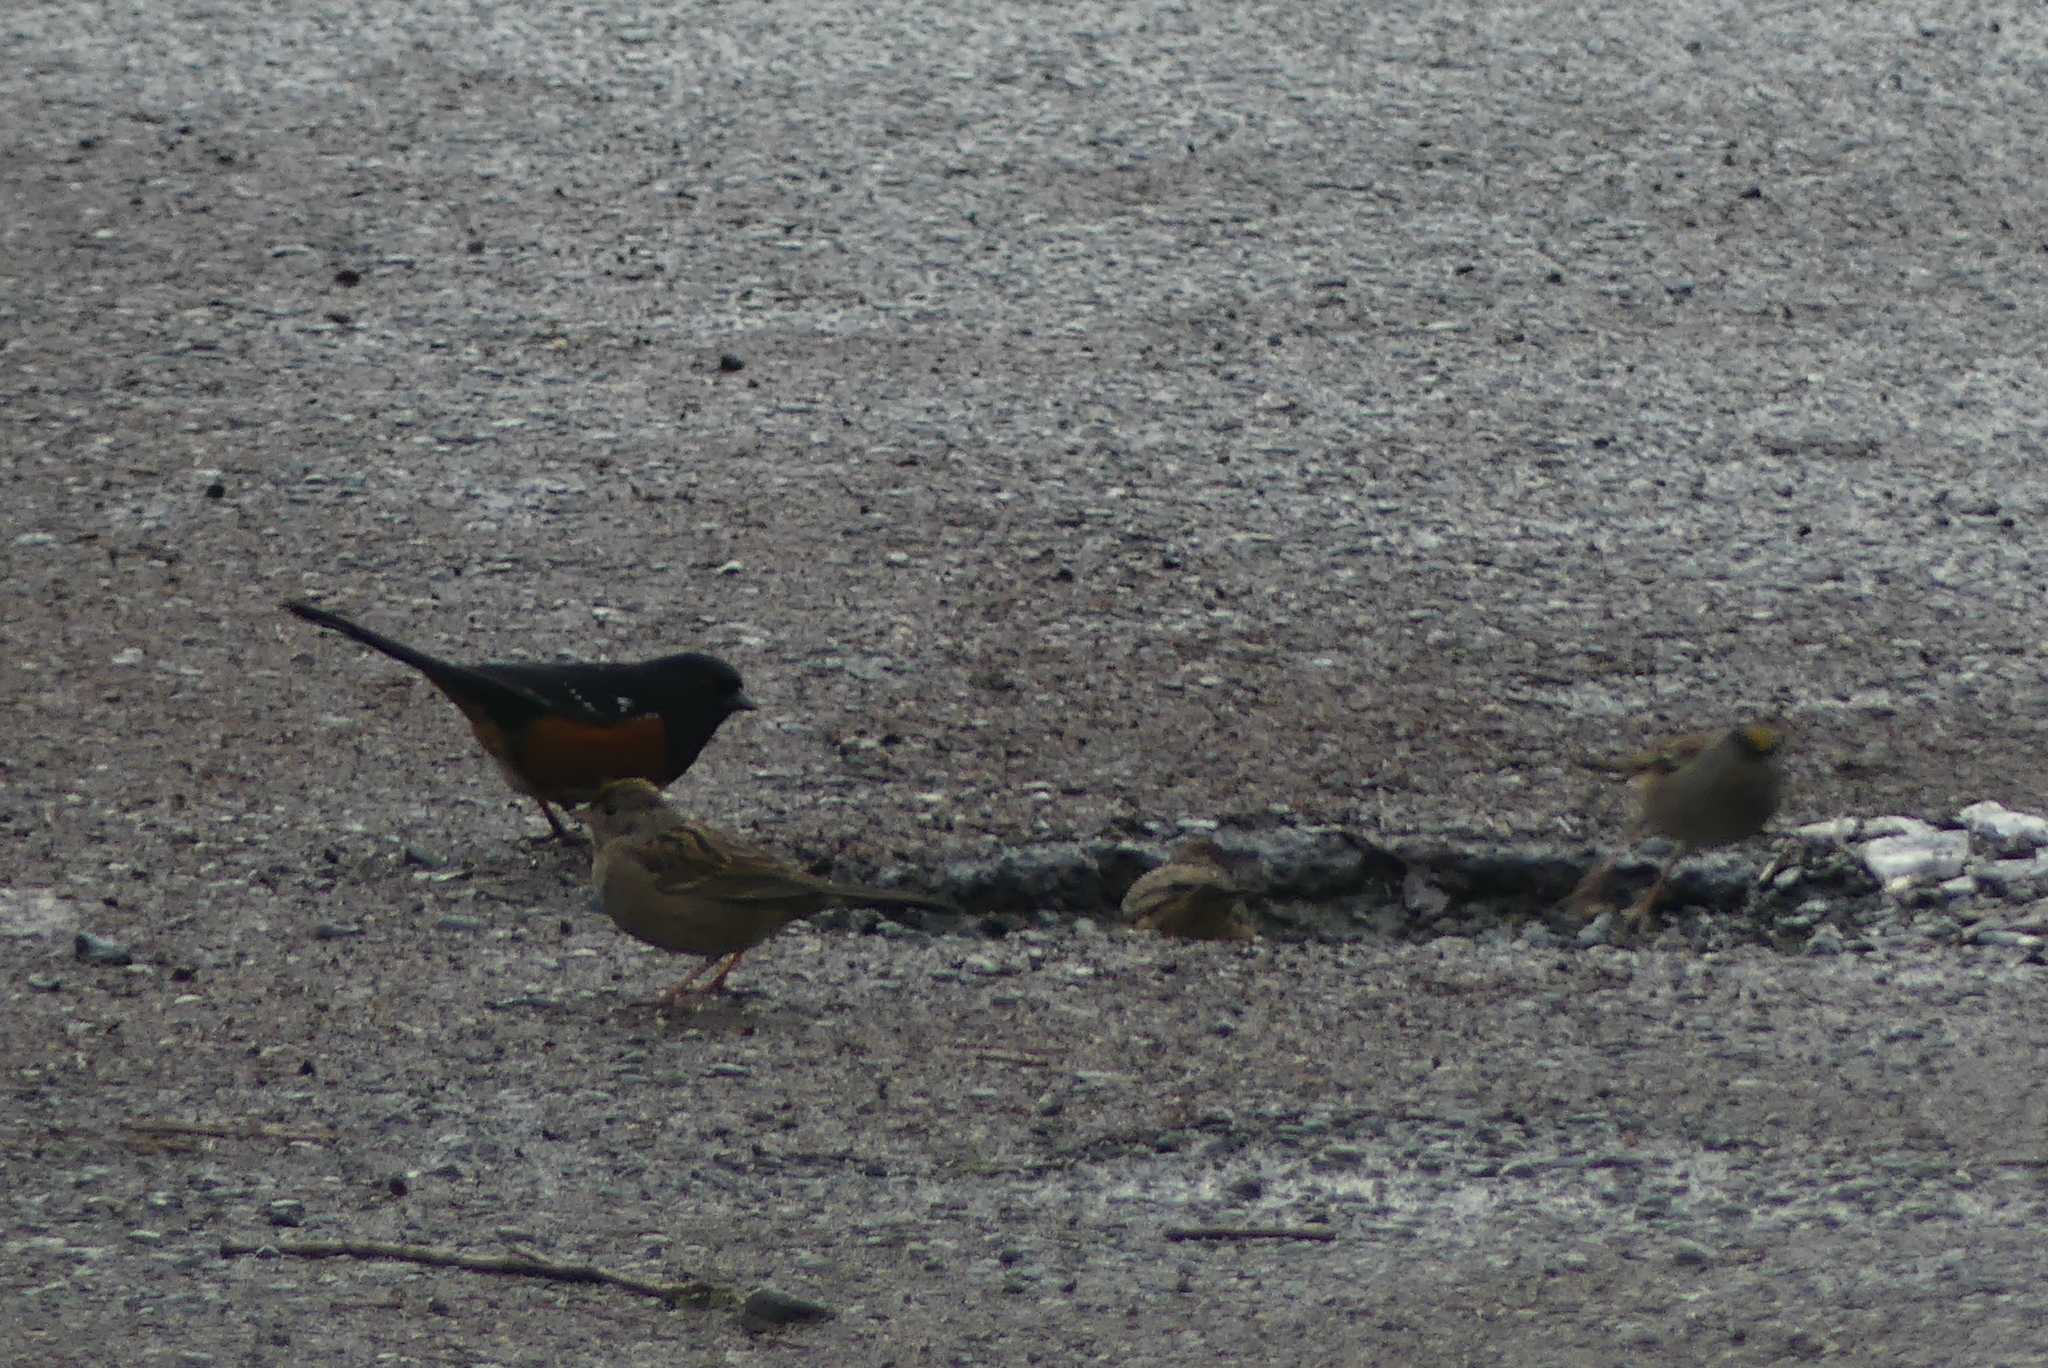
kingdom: Animalia
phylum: Chordata
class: Aves
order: Passeriformes
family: Passerellidae
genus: Pipilo
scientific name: Pipilo maculatus
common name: Spotted towhee
